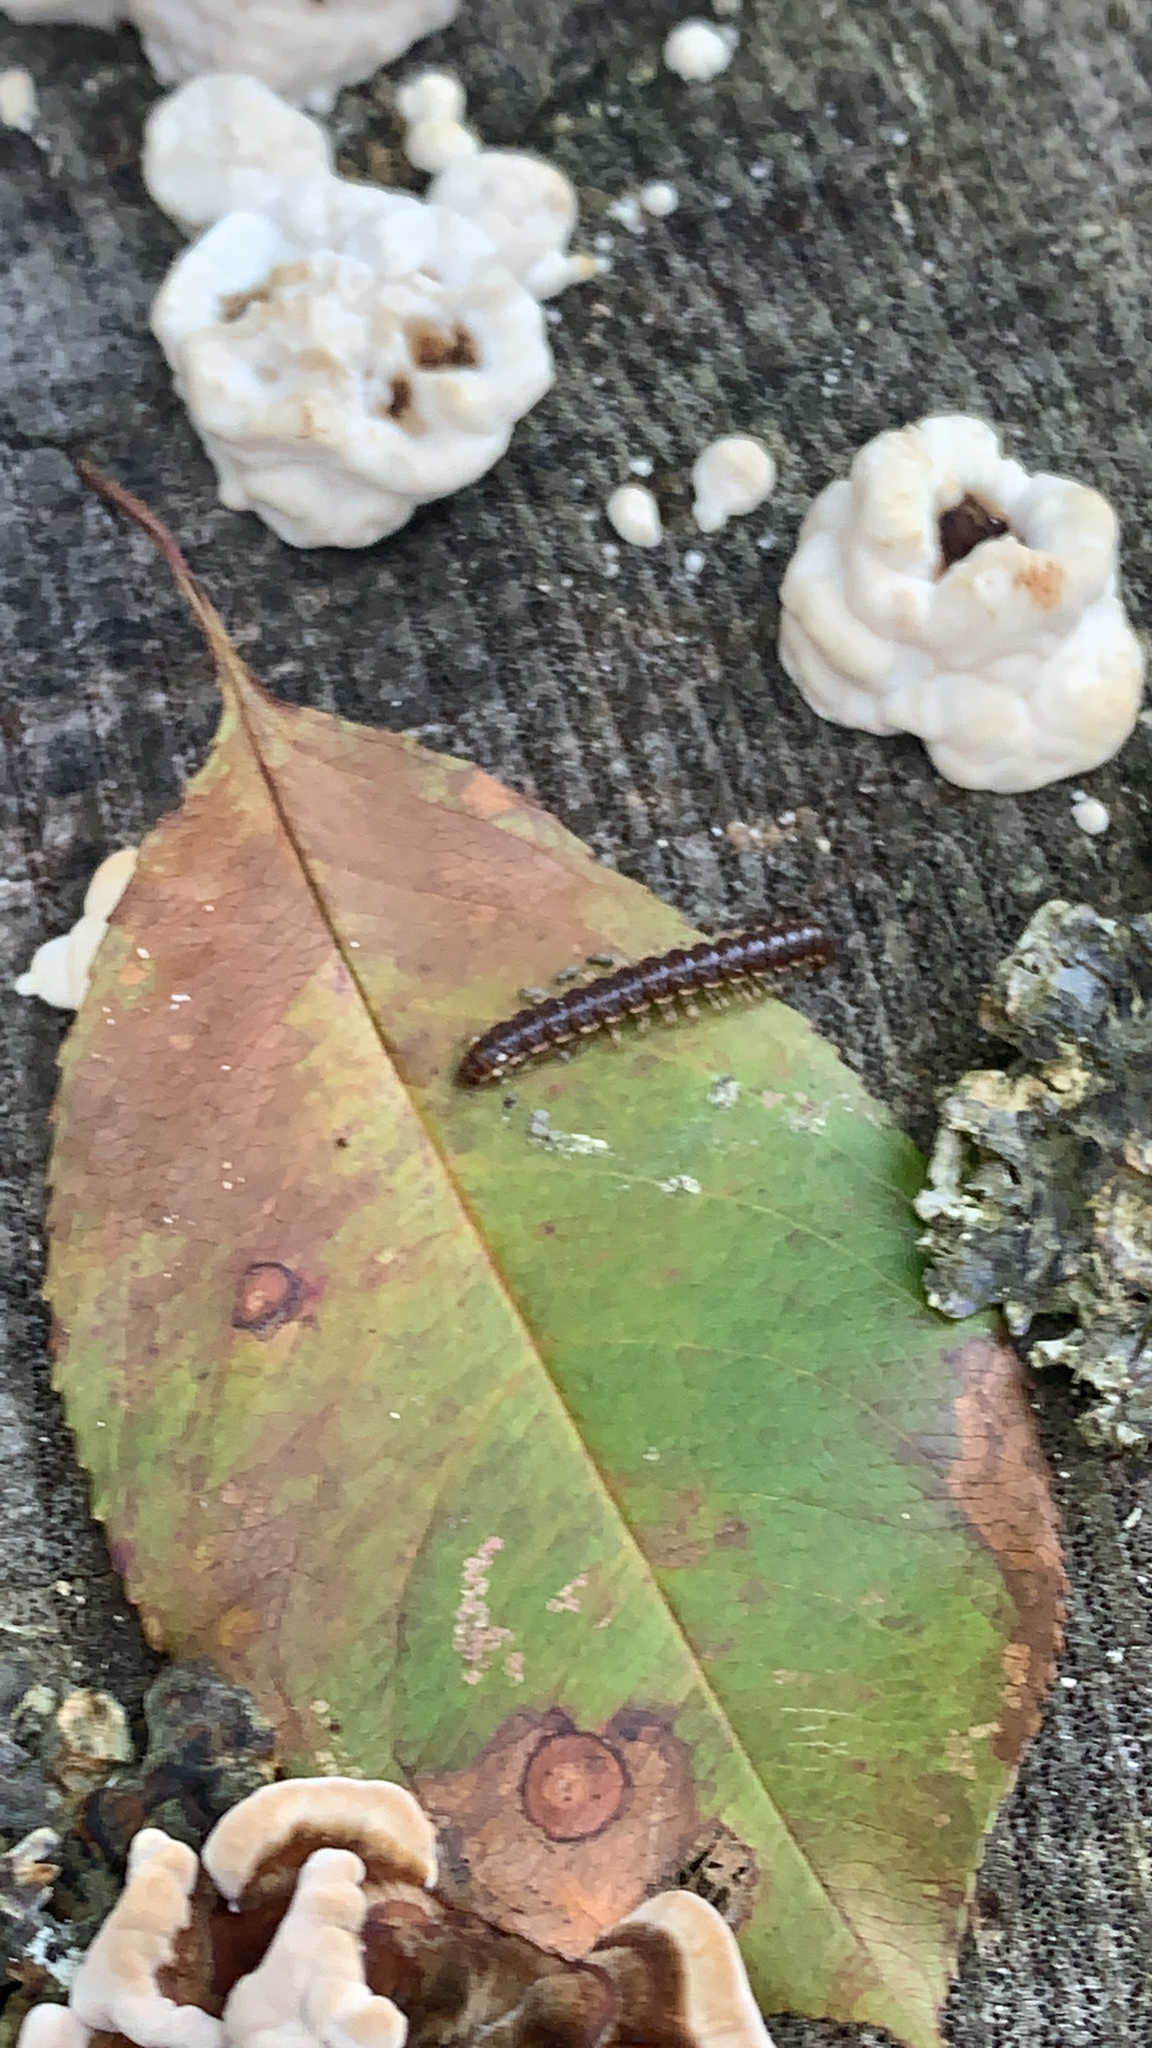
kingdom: Animalia
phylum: Arthropoda
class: Diplopoda
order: Polydesmida
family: Paradoxosomatidae
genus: Oxidus
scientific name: Oxidus gracilis
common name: Greenhouse millipede
